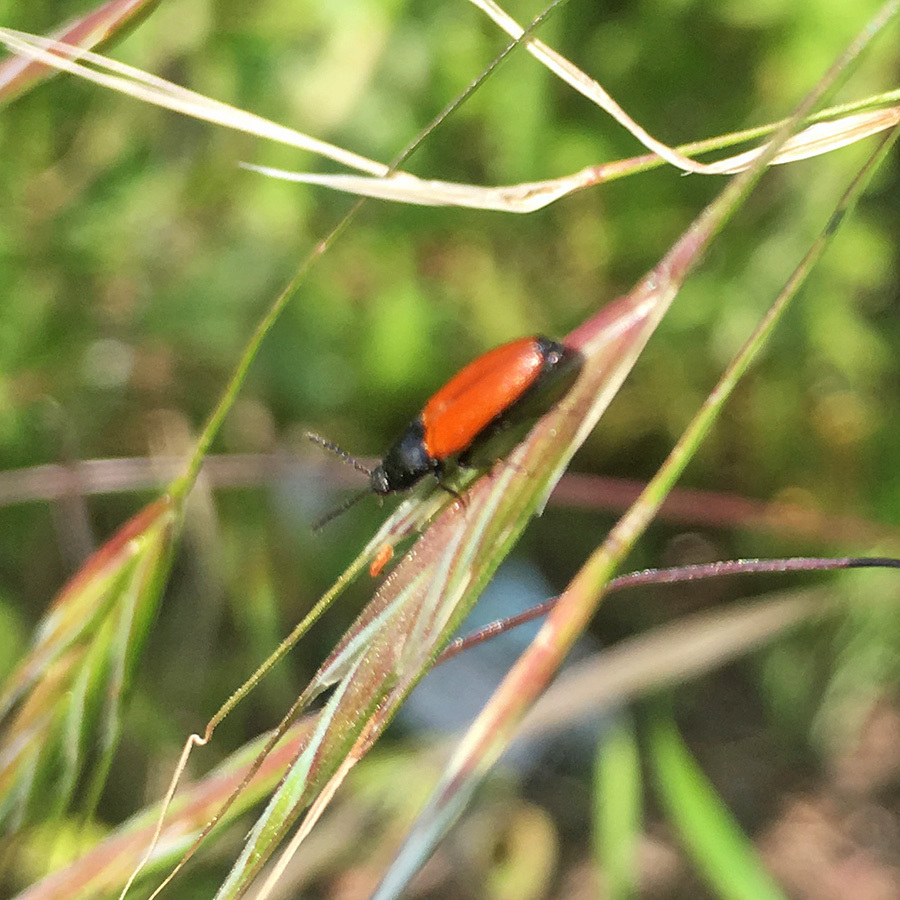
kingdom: Animalia
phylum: Arthropoda
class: Insecta
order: Coleoptera
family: Elateridae
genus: Ampedus
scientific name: Ampedus elongatulus
